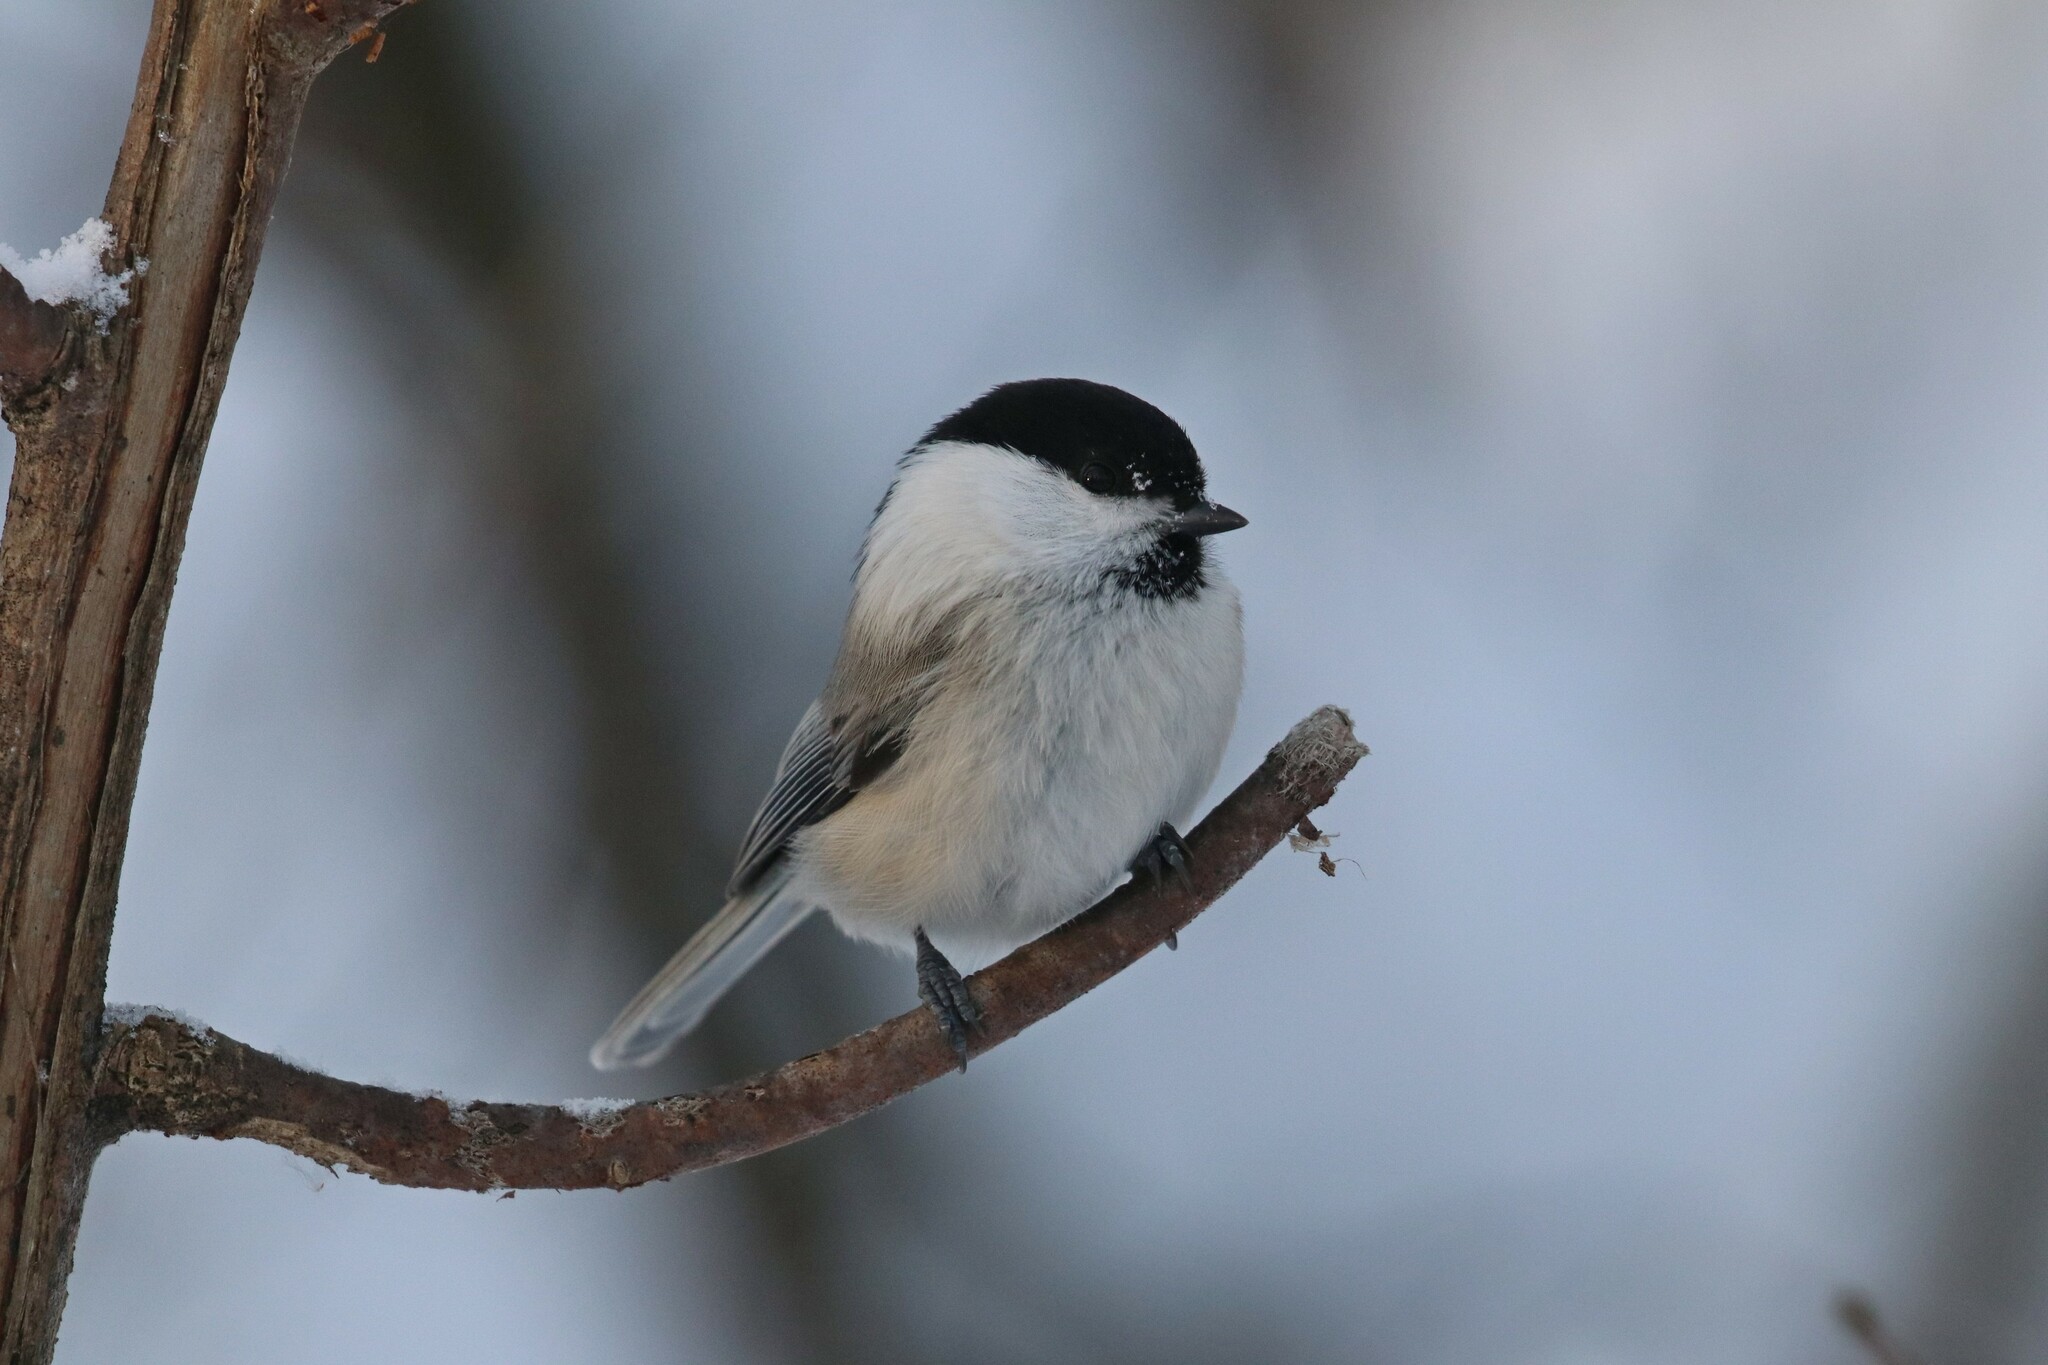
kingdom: Animalia
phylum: Chordata
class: Aves
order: Passeriformes
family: Paridae
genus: Poecile
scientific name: Poecile montanus
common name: Willow tit
